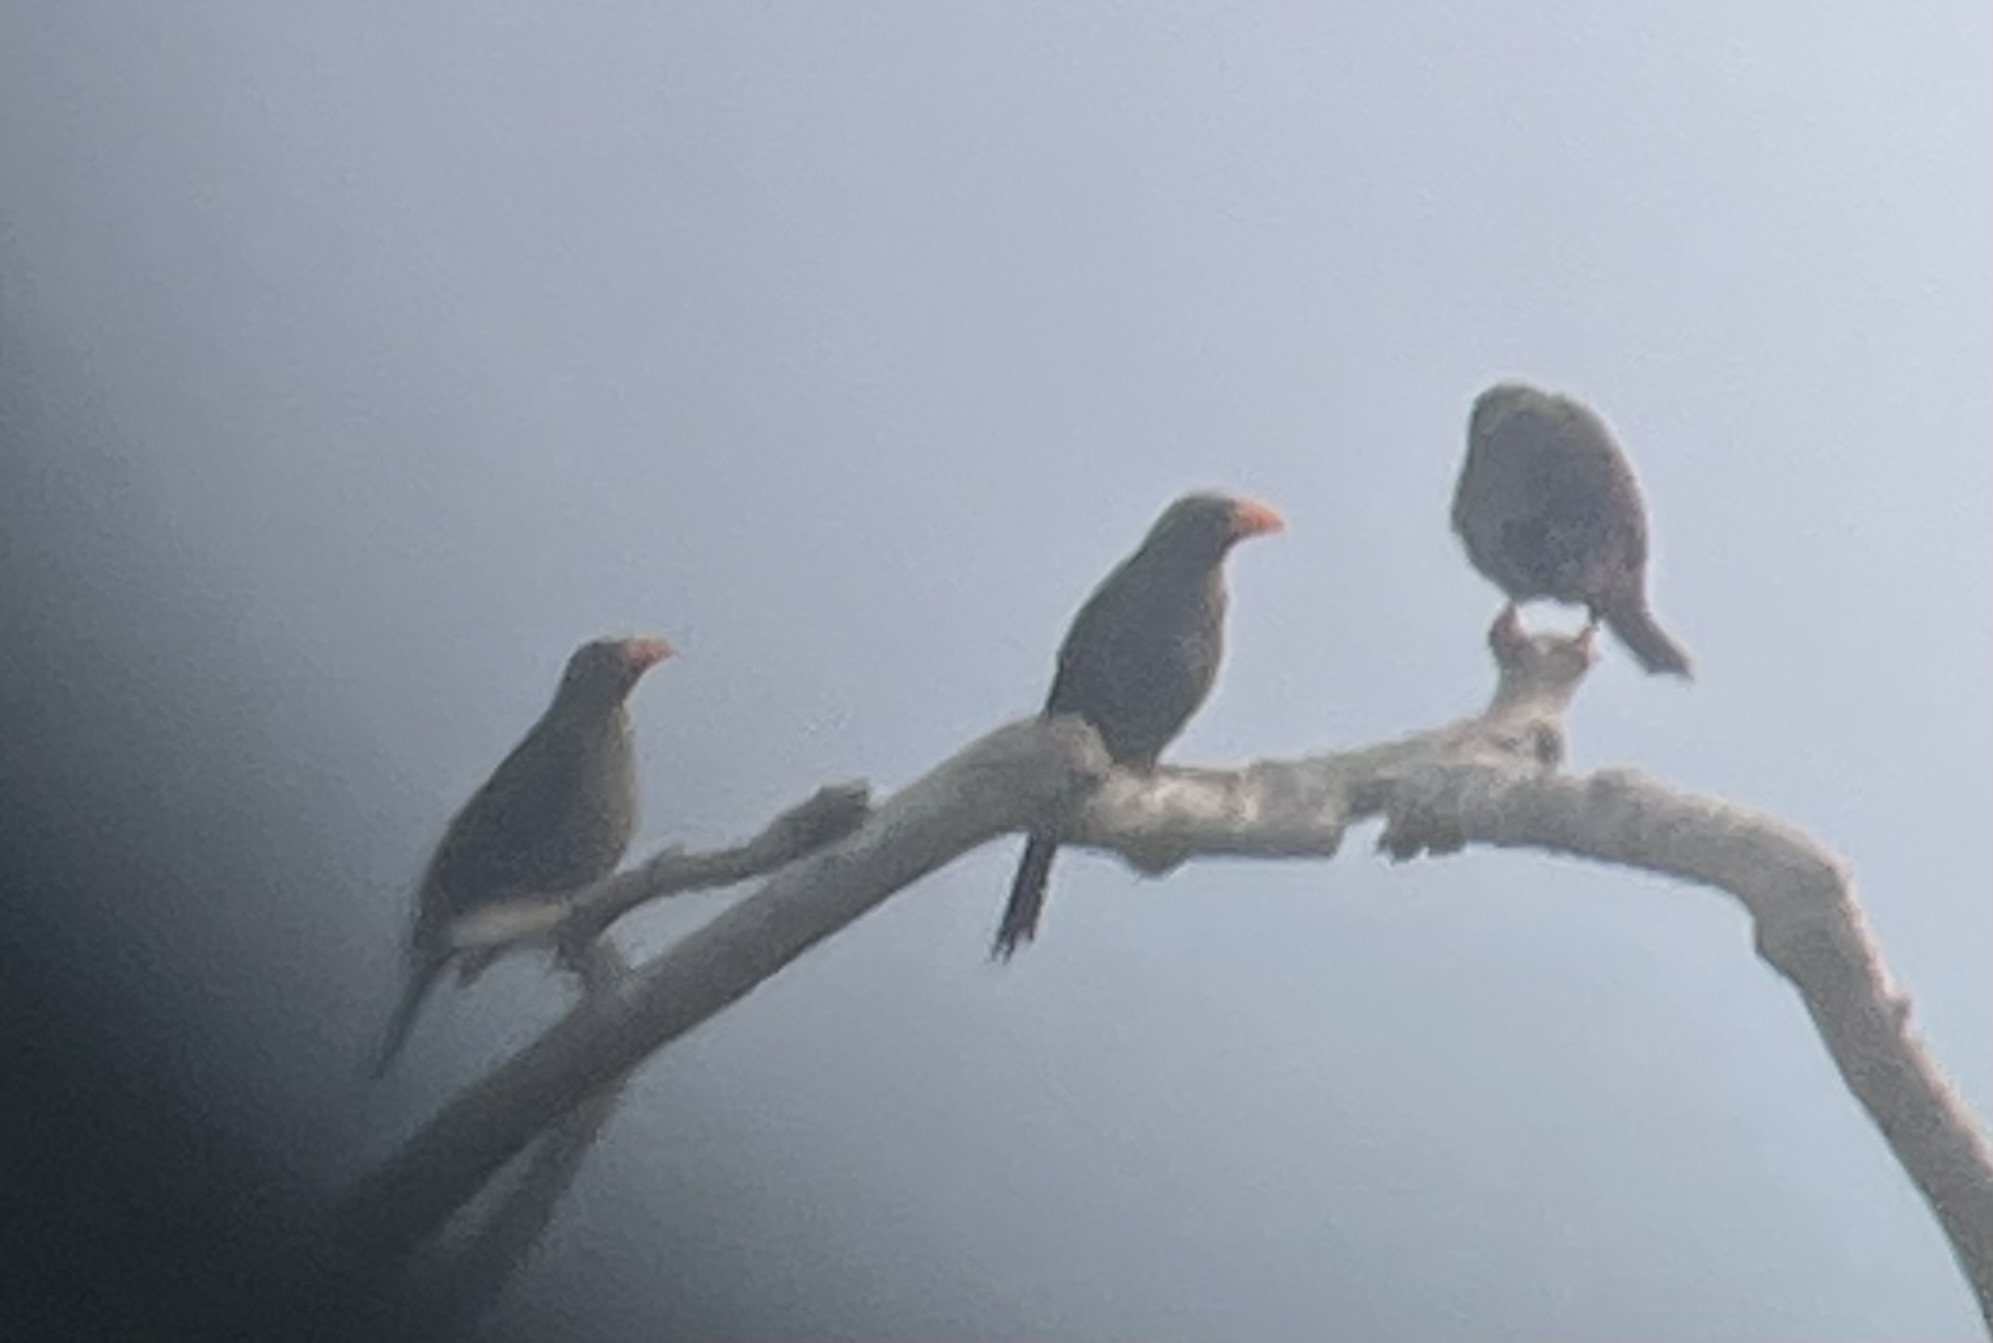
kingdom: Animalia
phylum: Chordata
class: Aves
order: Passeriformes
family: Sturnidae
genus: Scissirostrum
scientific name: Scissirostrum dubium
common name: Grosbeak starling
